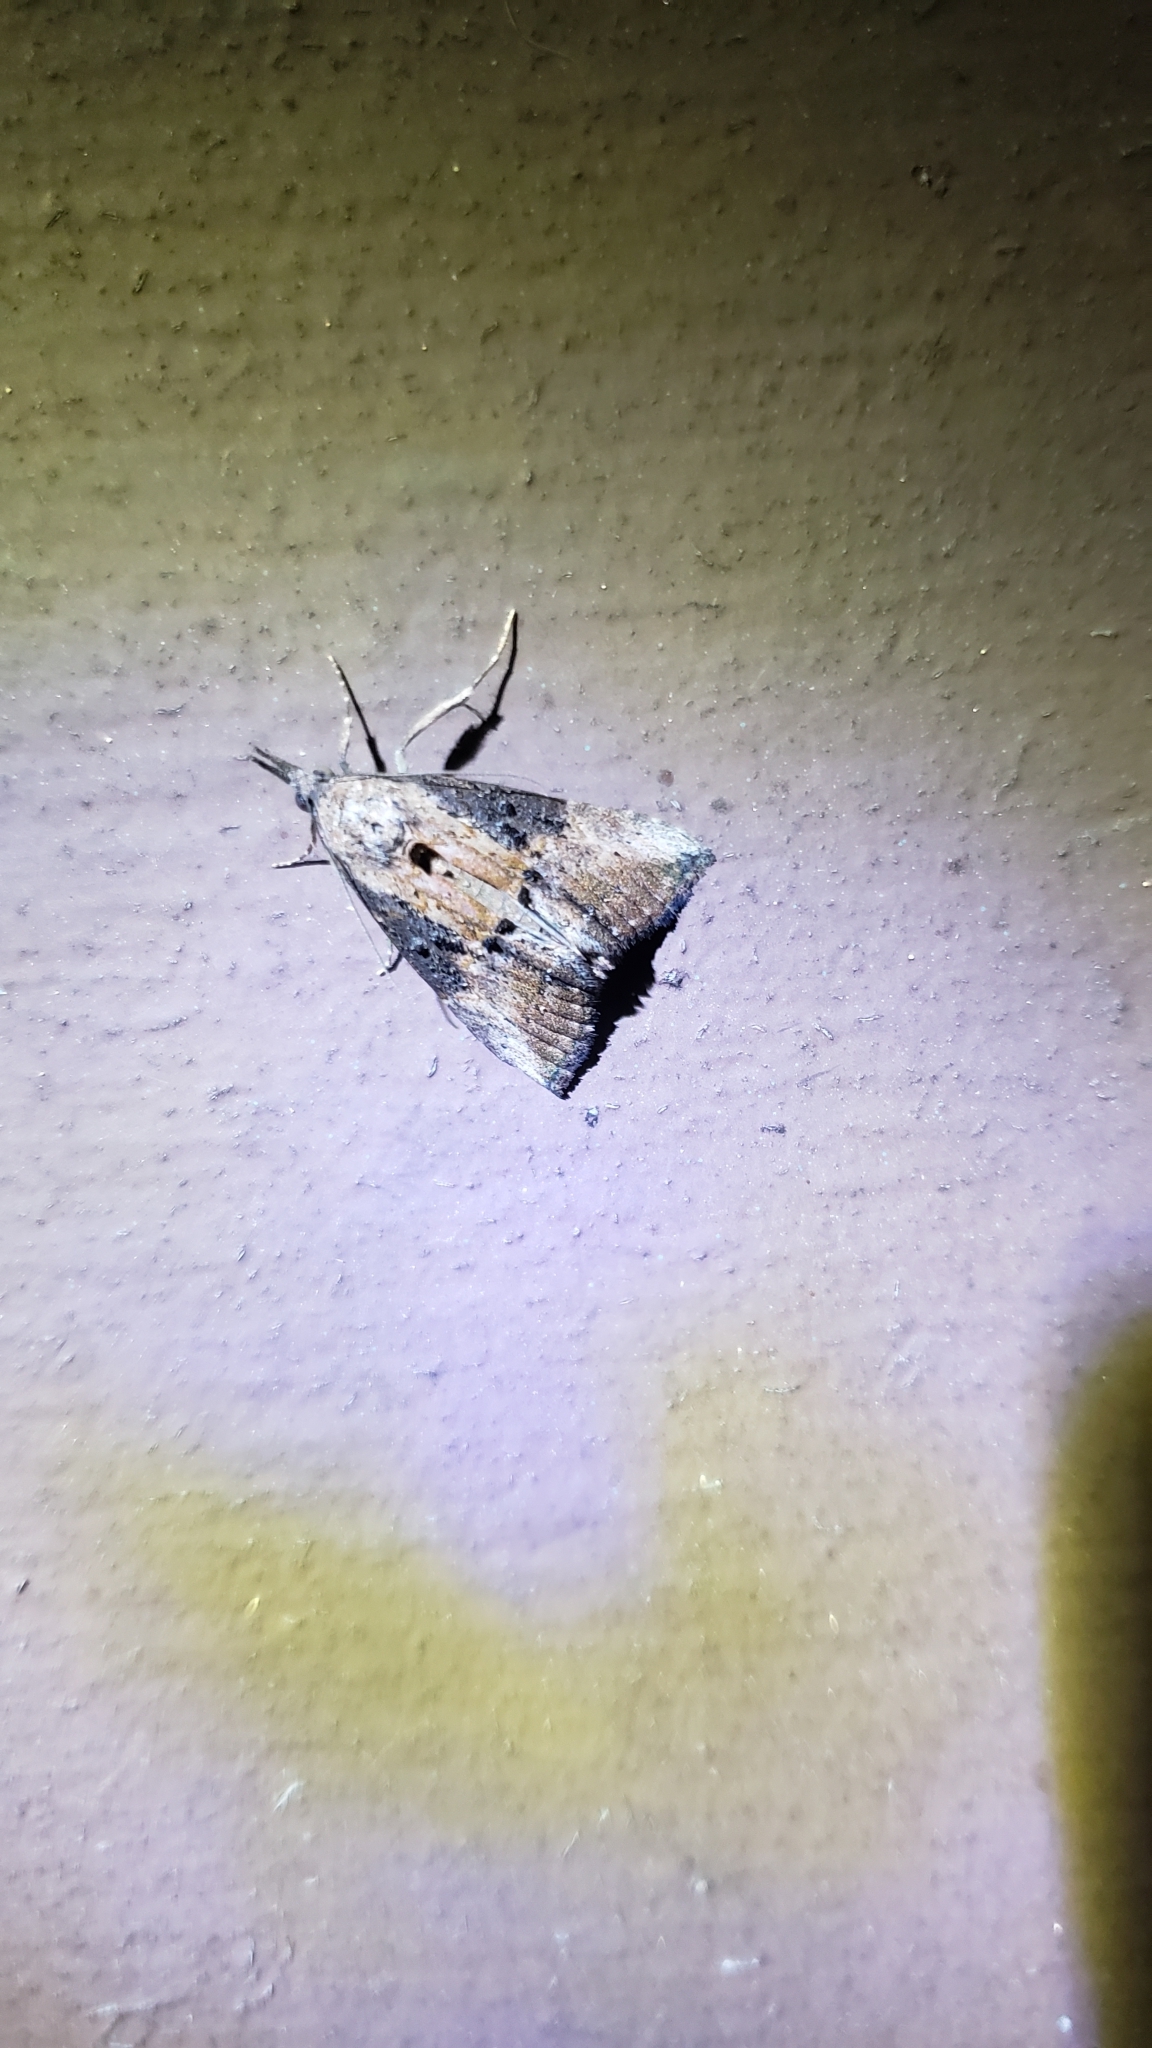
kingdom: Animalia
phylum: Arthropoda
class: Insecta
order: Lepidoptera
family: Erebidae
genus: Hypena
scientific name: Hypena scabra
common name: Green cloverworm
